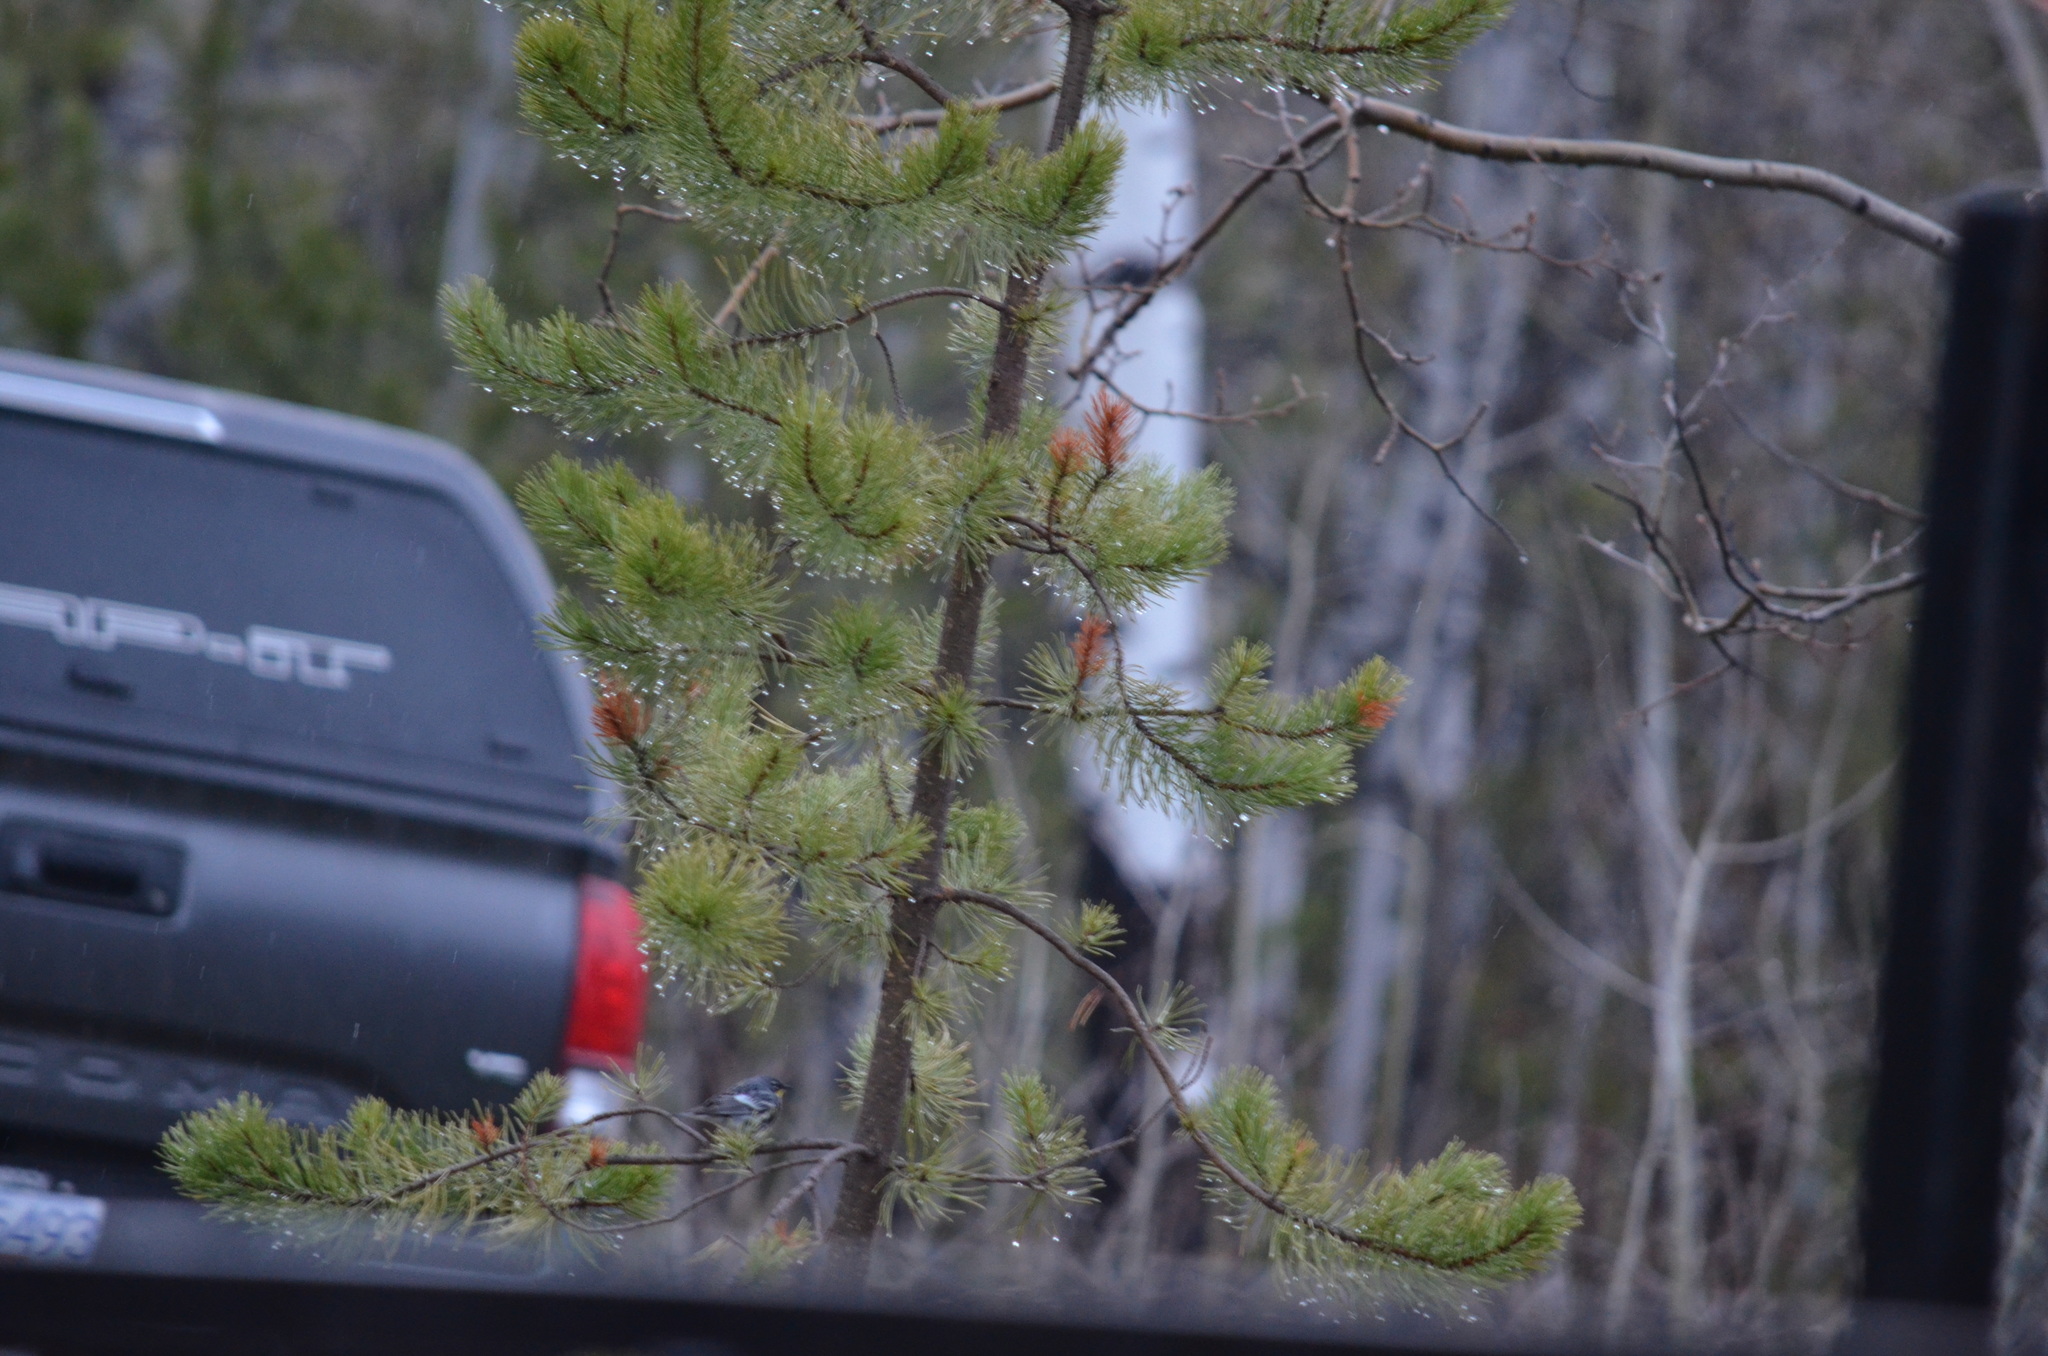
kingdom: Animalia
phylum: Chordata
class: Aves
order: Passeriformes
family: Parulidae
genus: Setophaga
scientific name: Setophaga coronata
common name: Myrtle warbler
